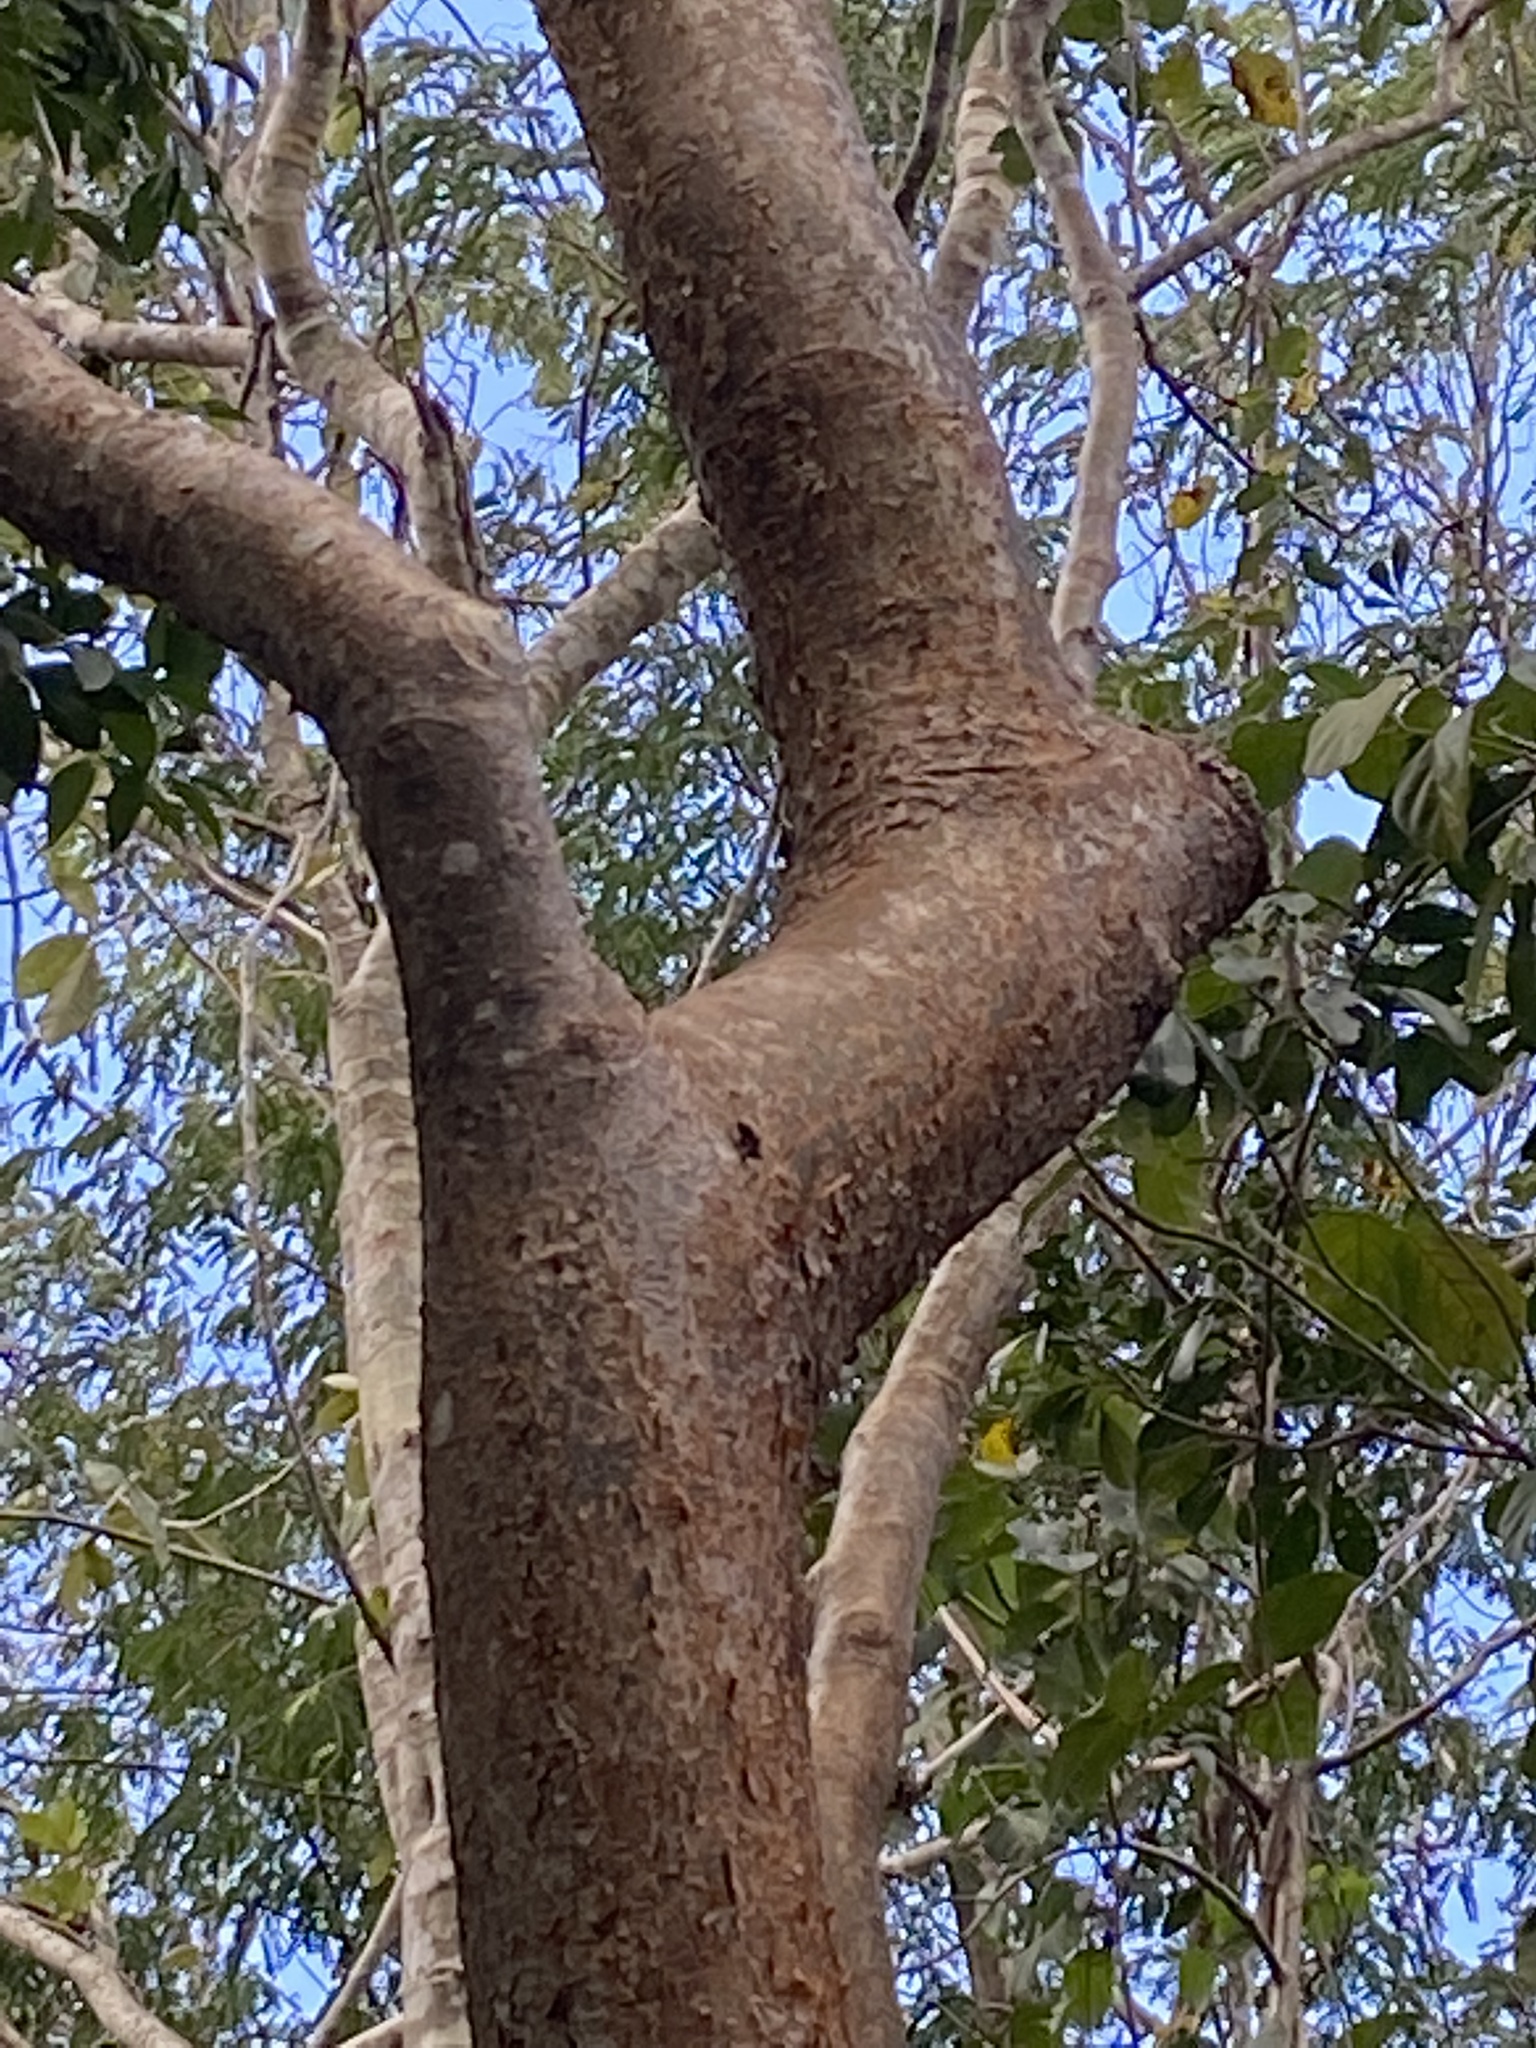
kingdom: Plantae
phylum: Tracheophyta
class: Magnoliopsida
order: Sapindales
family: Burseraceae
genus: Bursera
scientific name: Bursera simaruba
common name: Turpentine tree
